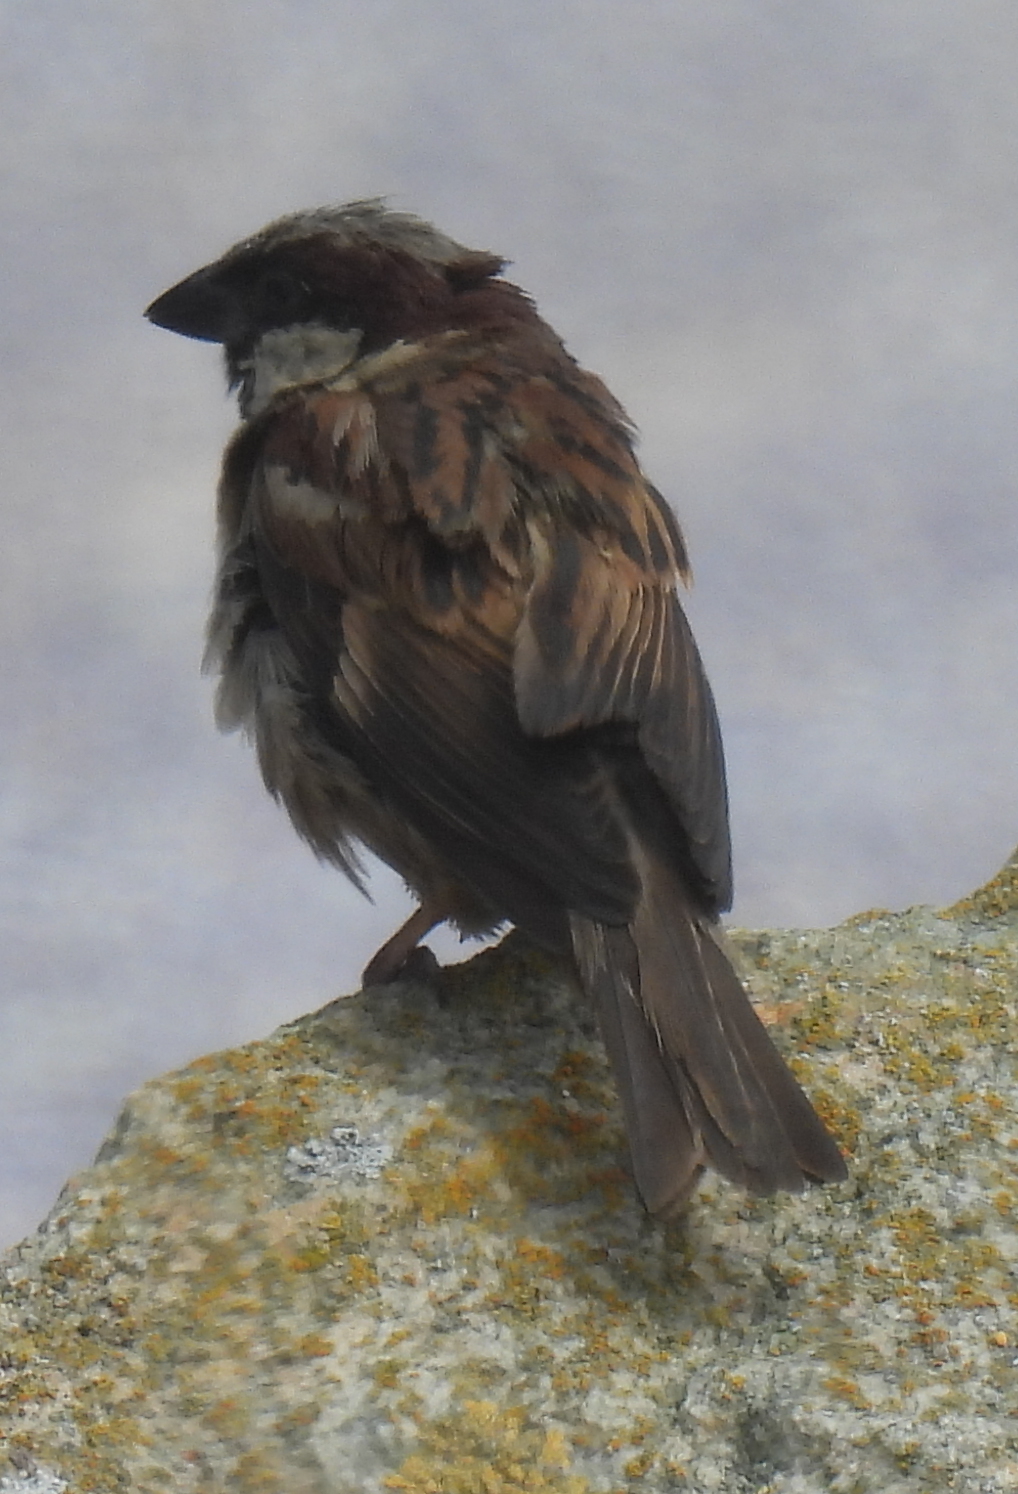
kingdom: Animalia
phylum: Chordata
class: Aves
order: Passeriformes
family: Passeridae
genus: Passer
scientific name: Passer domesticus
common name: House sparrow
